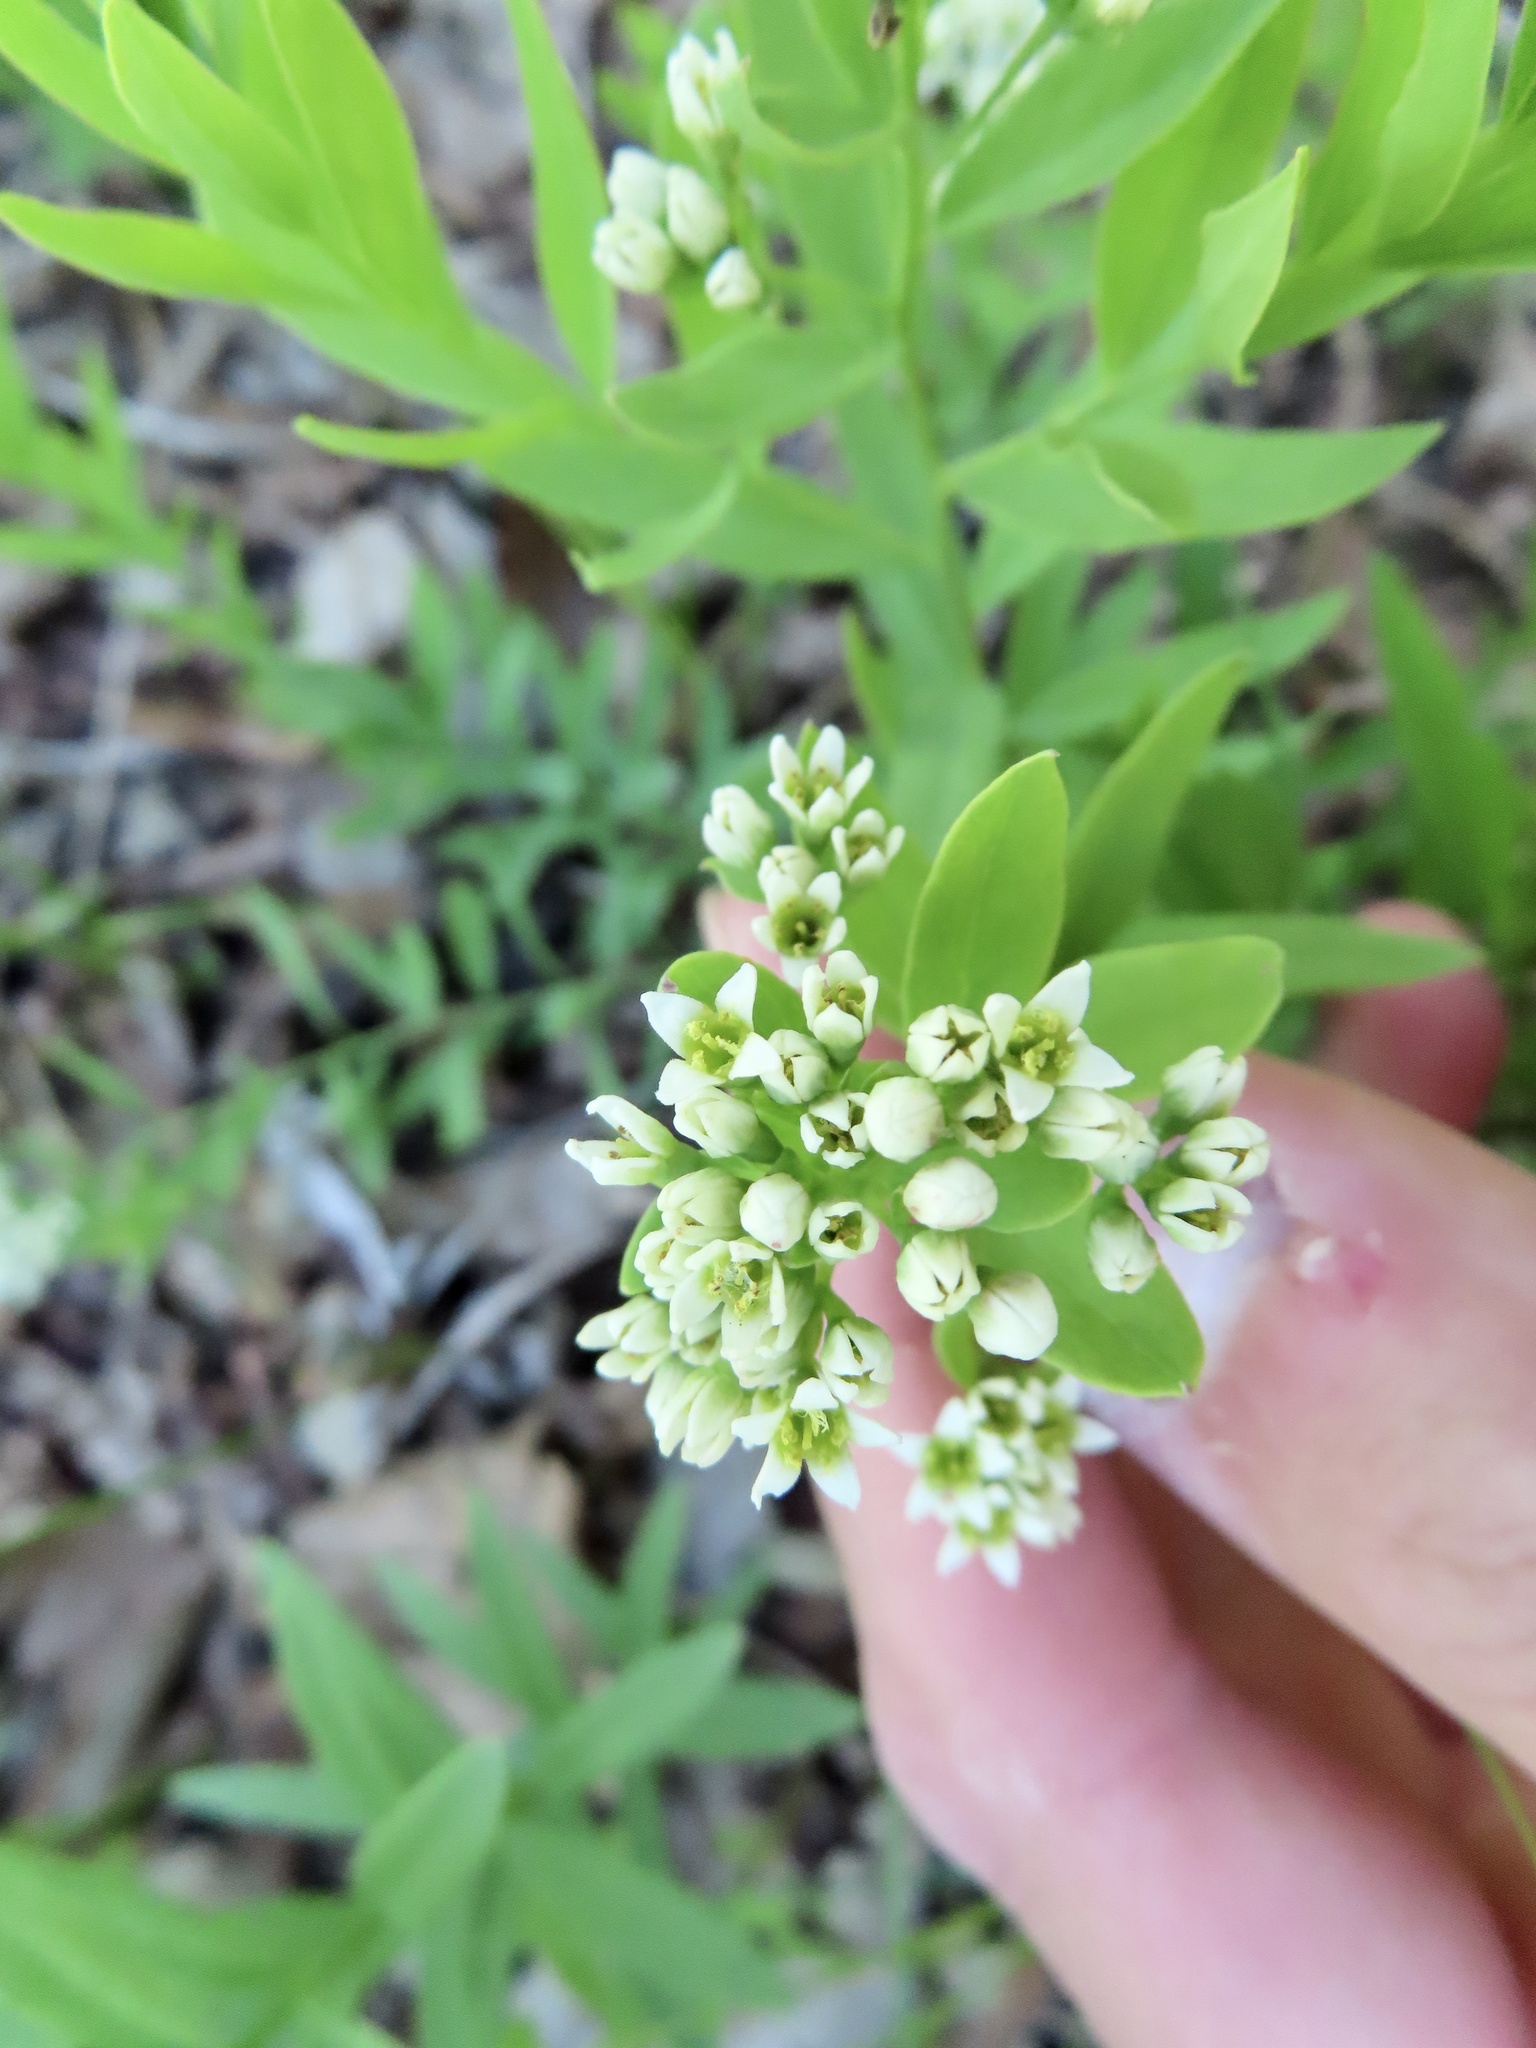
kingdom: Plantae
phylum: Tracheophyta
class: Magnoliopsida
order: Santalales
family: Comandraceae
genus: Comandra
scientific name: Comandra umbellata
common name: Bastard toadflax
